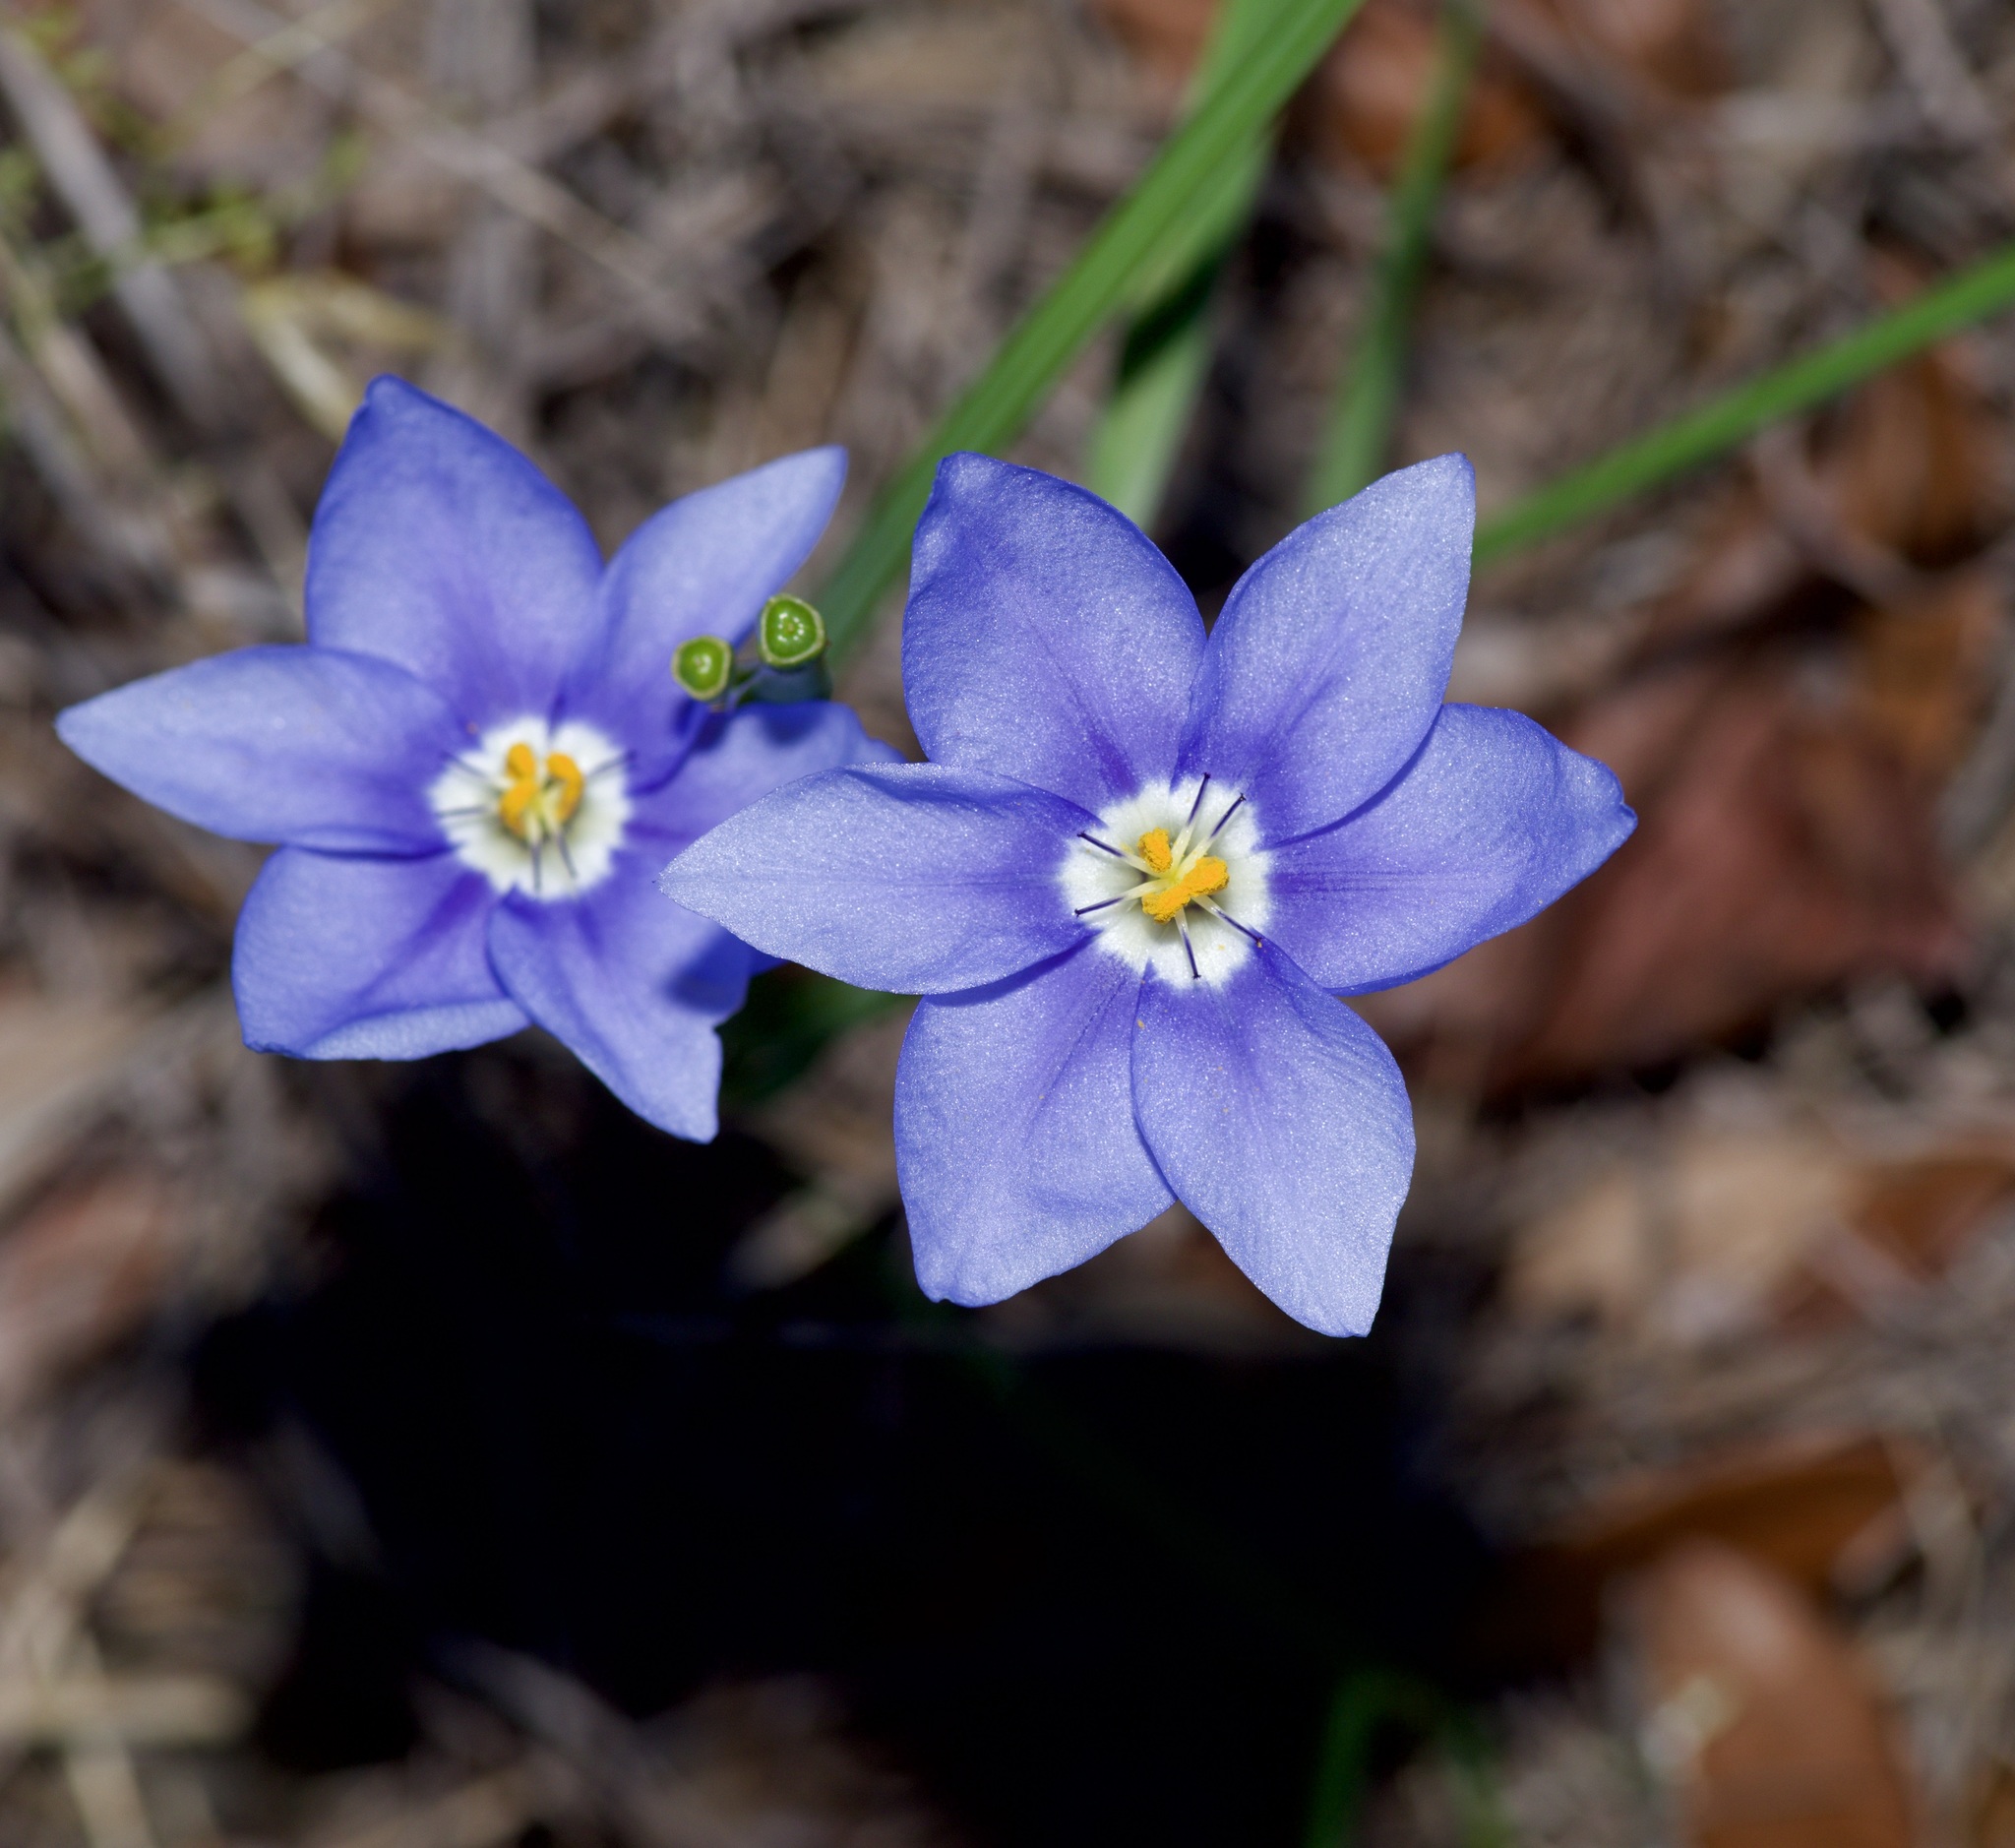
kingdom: Plantae
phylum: Tracheophyta
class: Liliopsida
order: Asparagales
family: Iridaceae
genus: Nemastylis
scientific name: Nemastylis geminiflora
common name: Prairie celestial
